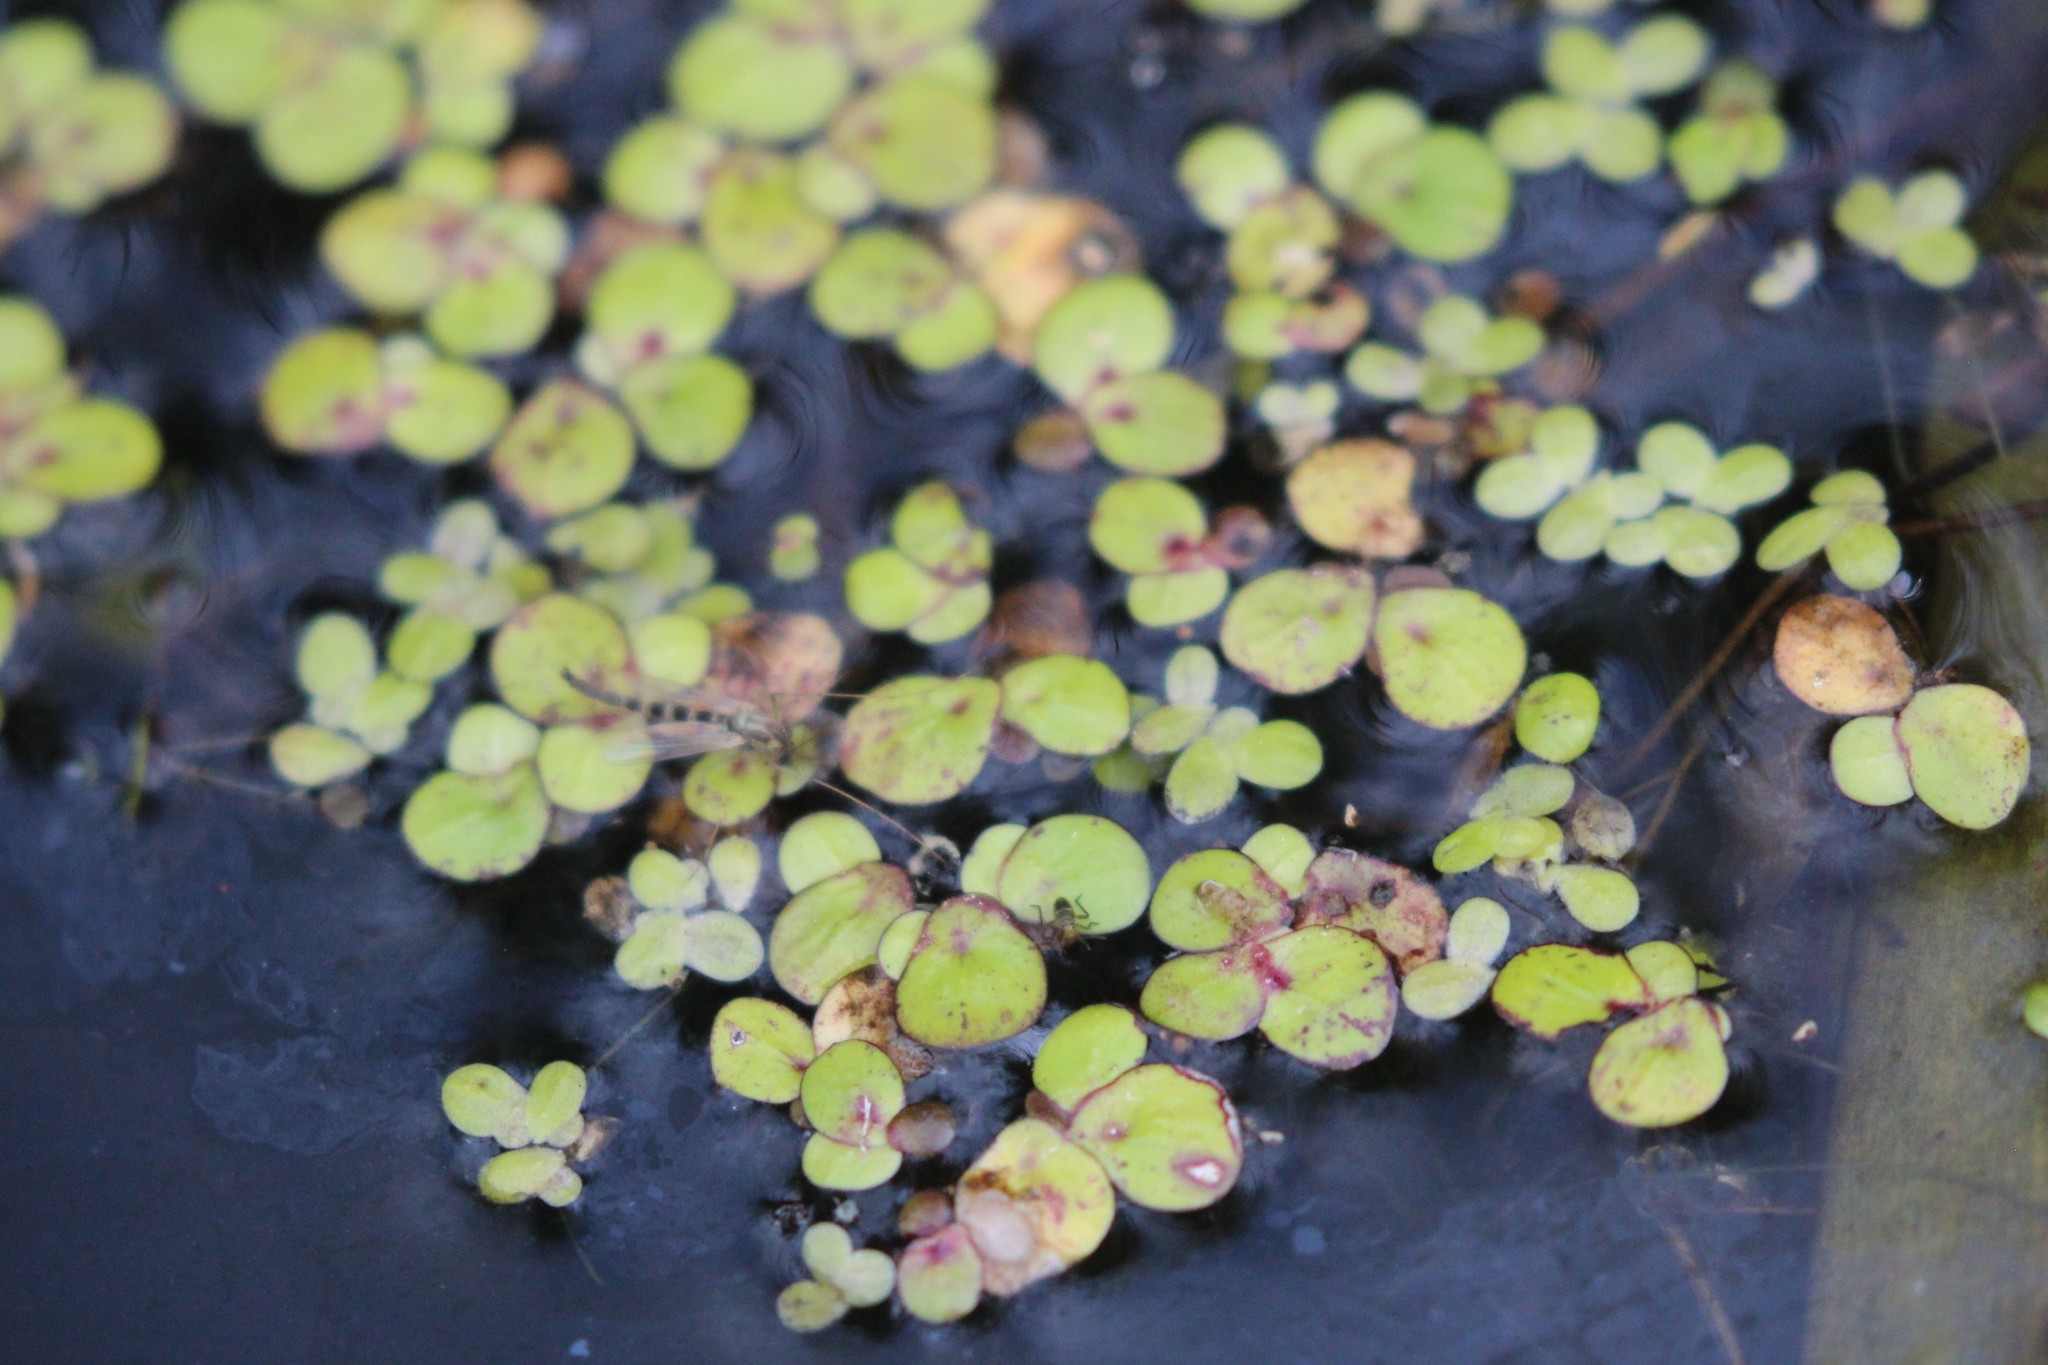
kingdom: Plantae
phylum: Tracheophyta
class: Liliopsida
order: Alismatales
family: Araceae
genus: Spirodela
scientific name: Spirodela polyrhiza
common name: Great duckweed
